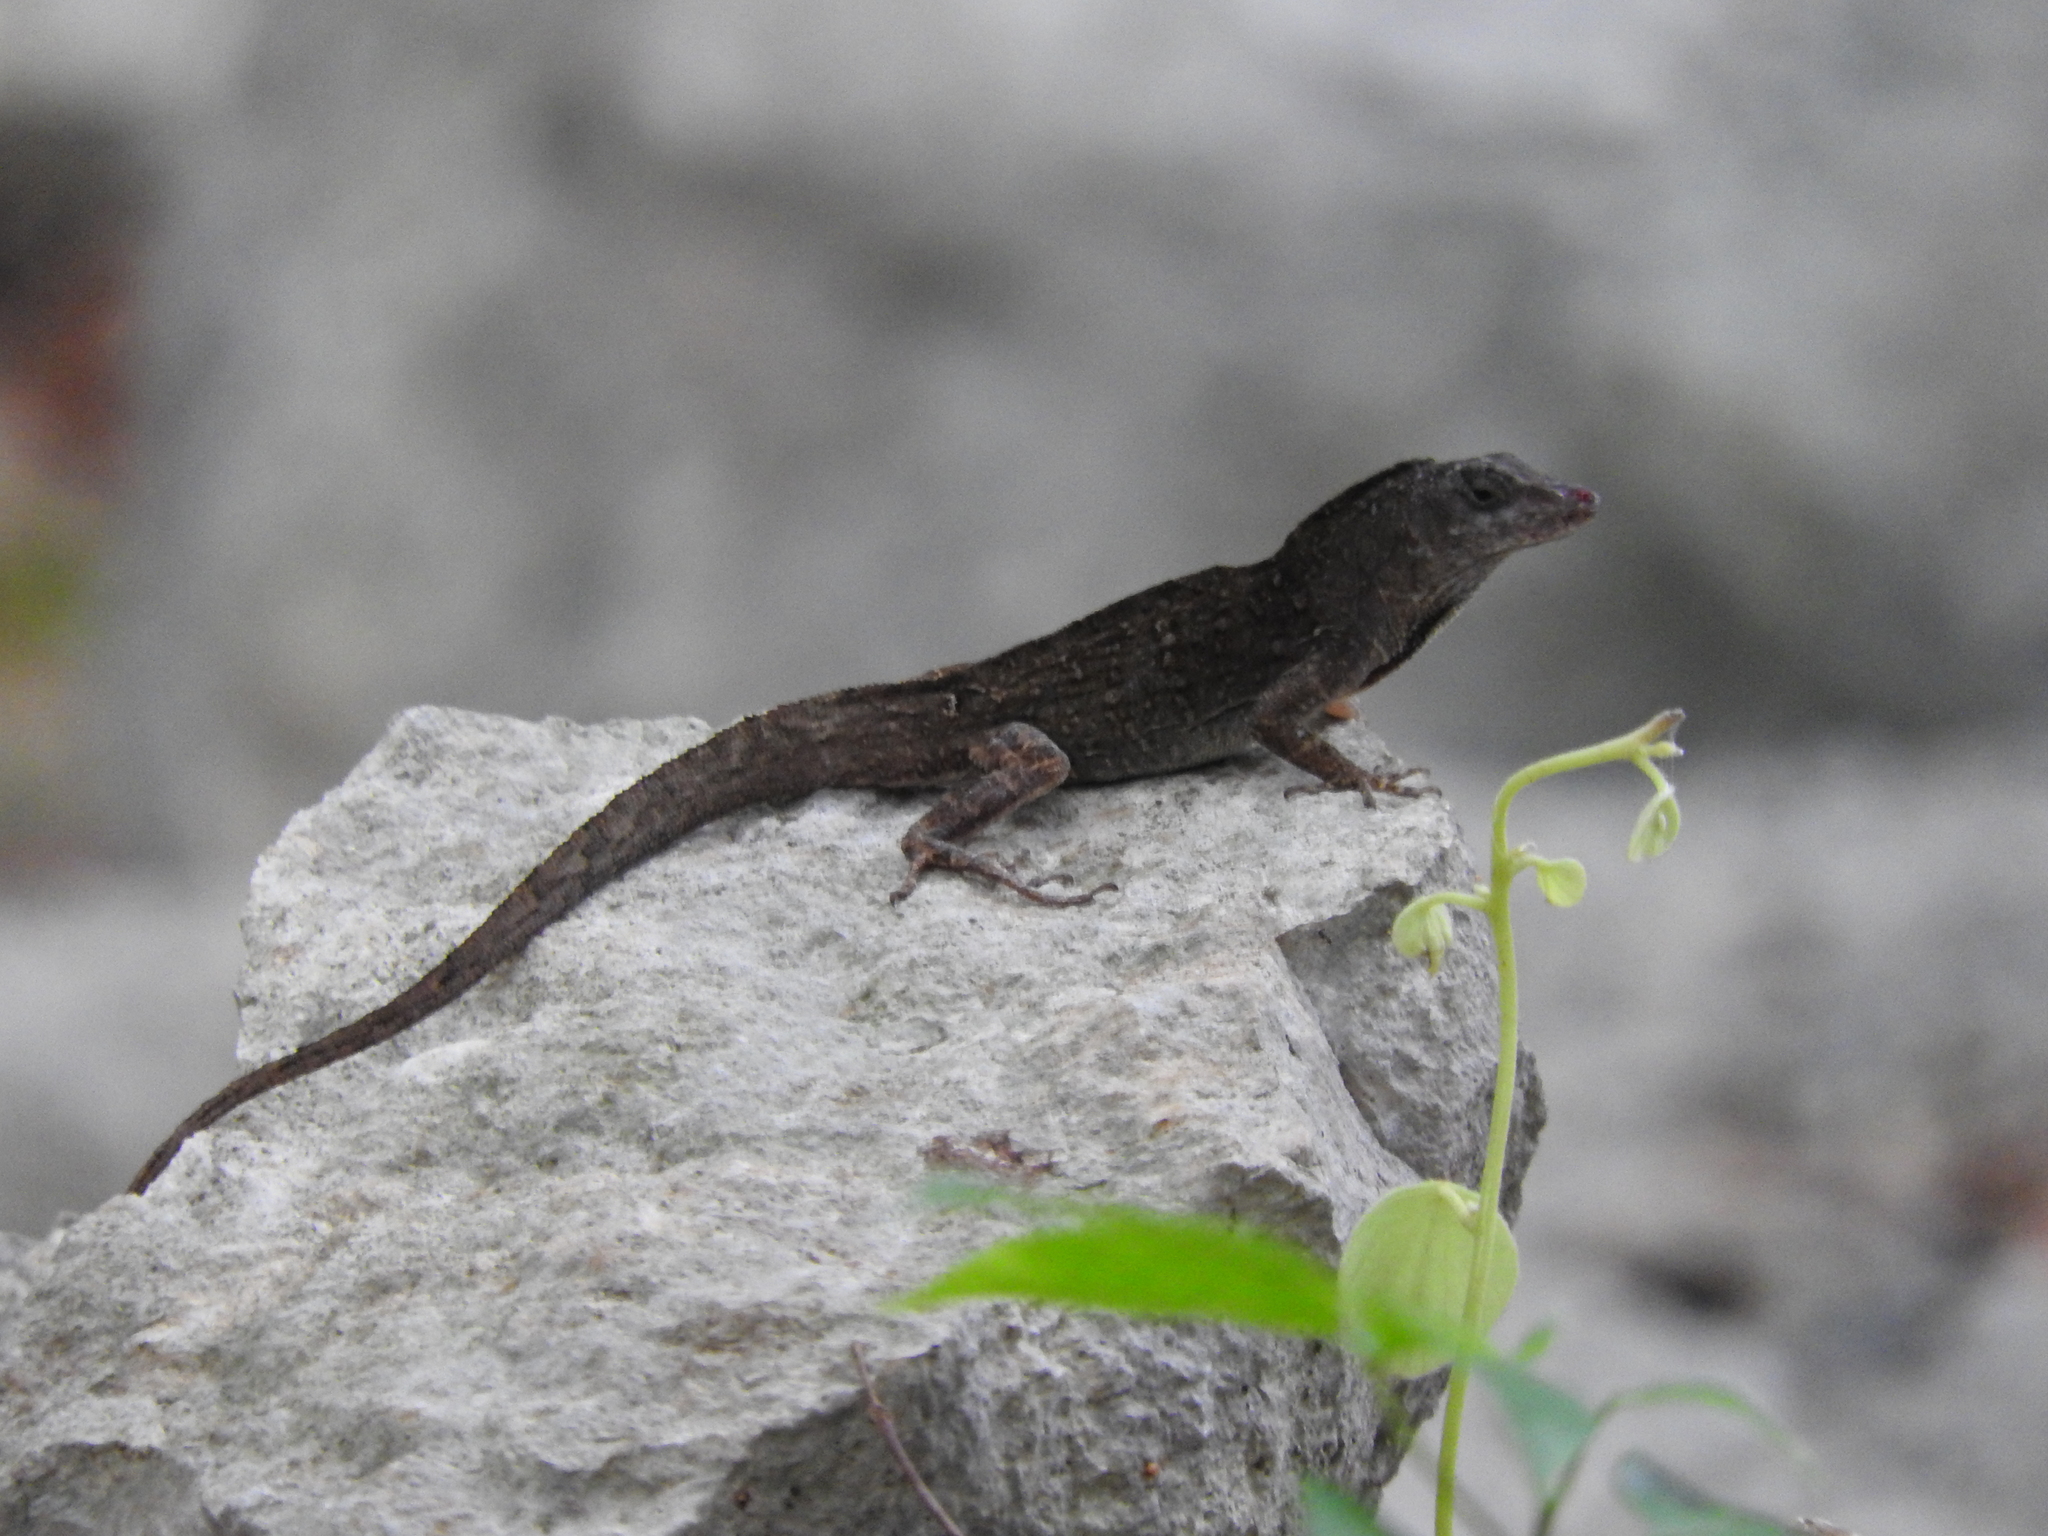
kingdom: Animalia
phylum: Chordata
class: Squamata
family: Dactyloidae
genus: Anolis
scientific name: Anolis sagrei
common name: Brown anole
